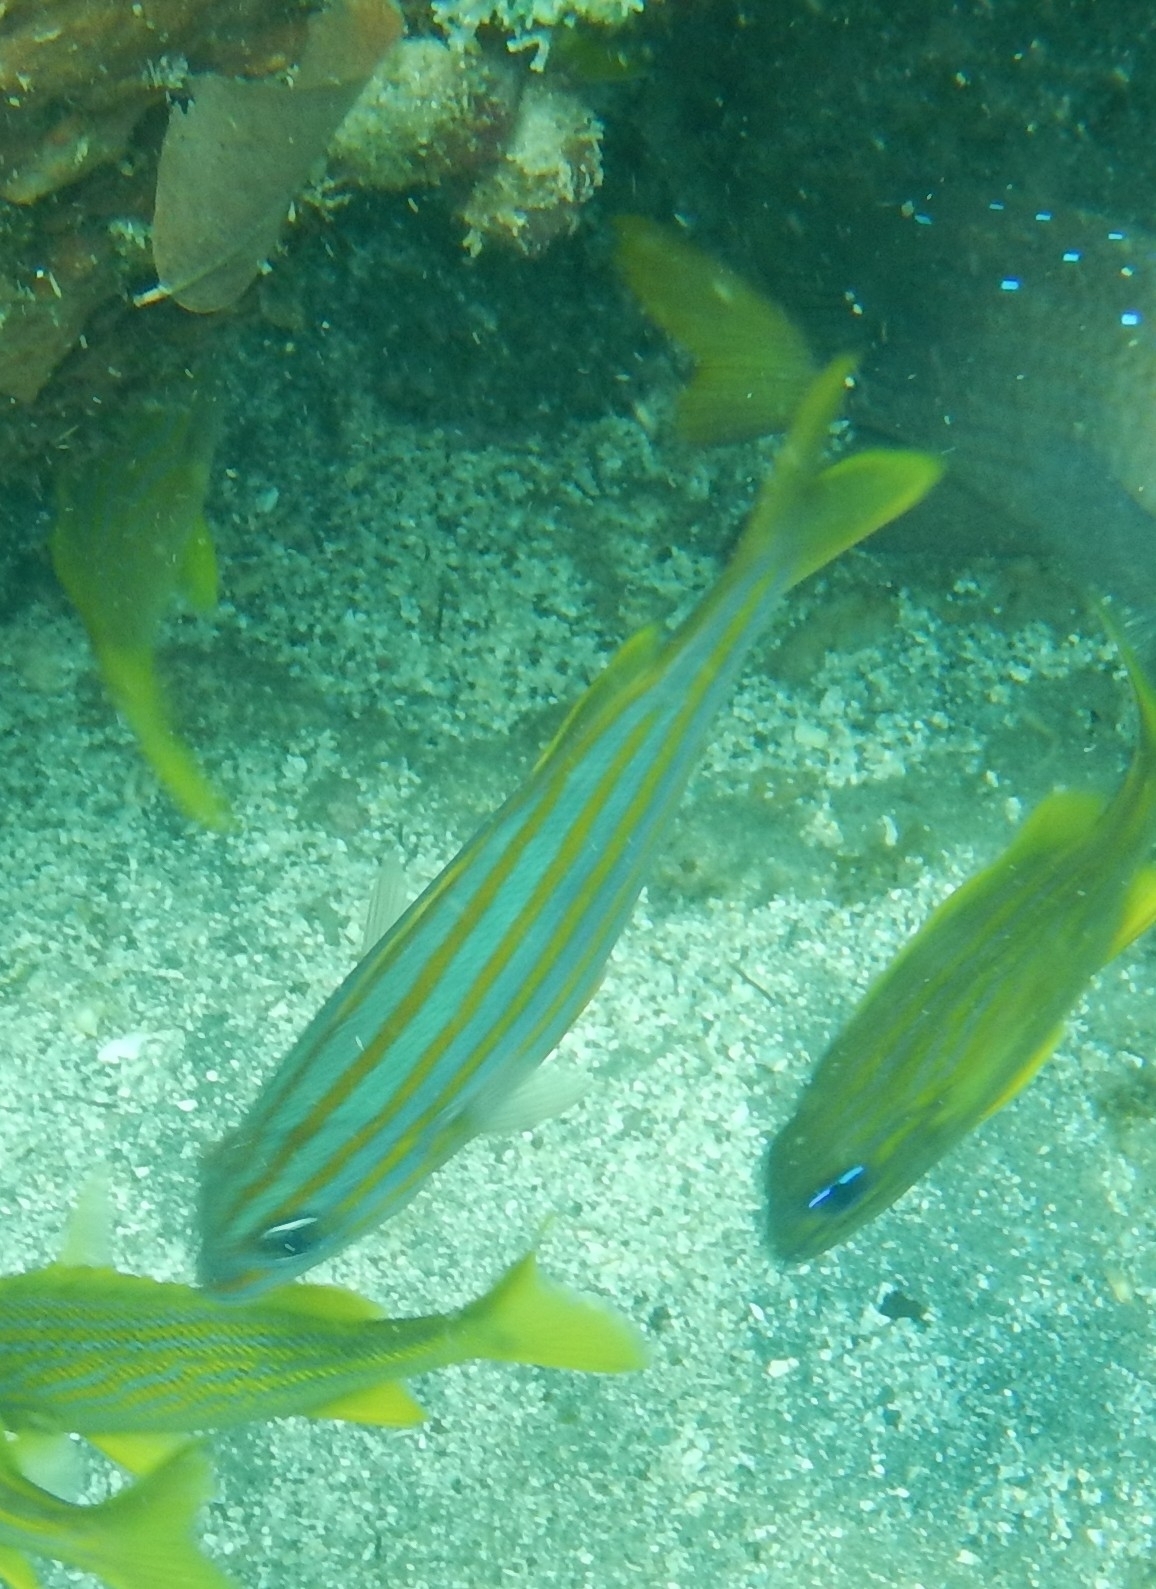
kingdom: Animalia
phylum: Chordata
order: Perciformes
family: Haemulidae
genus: Haemulon
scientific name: Haemulon chrysargyreum
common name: Smallmouth grunt
